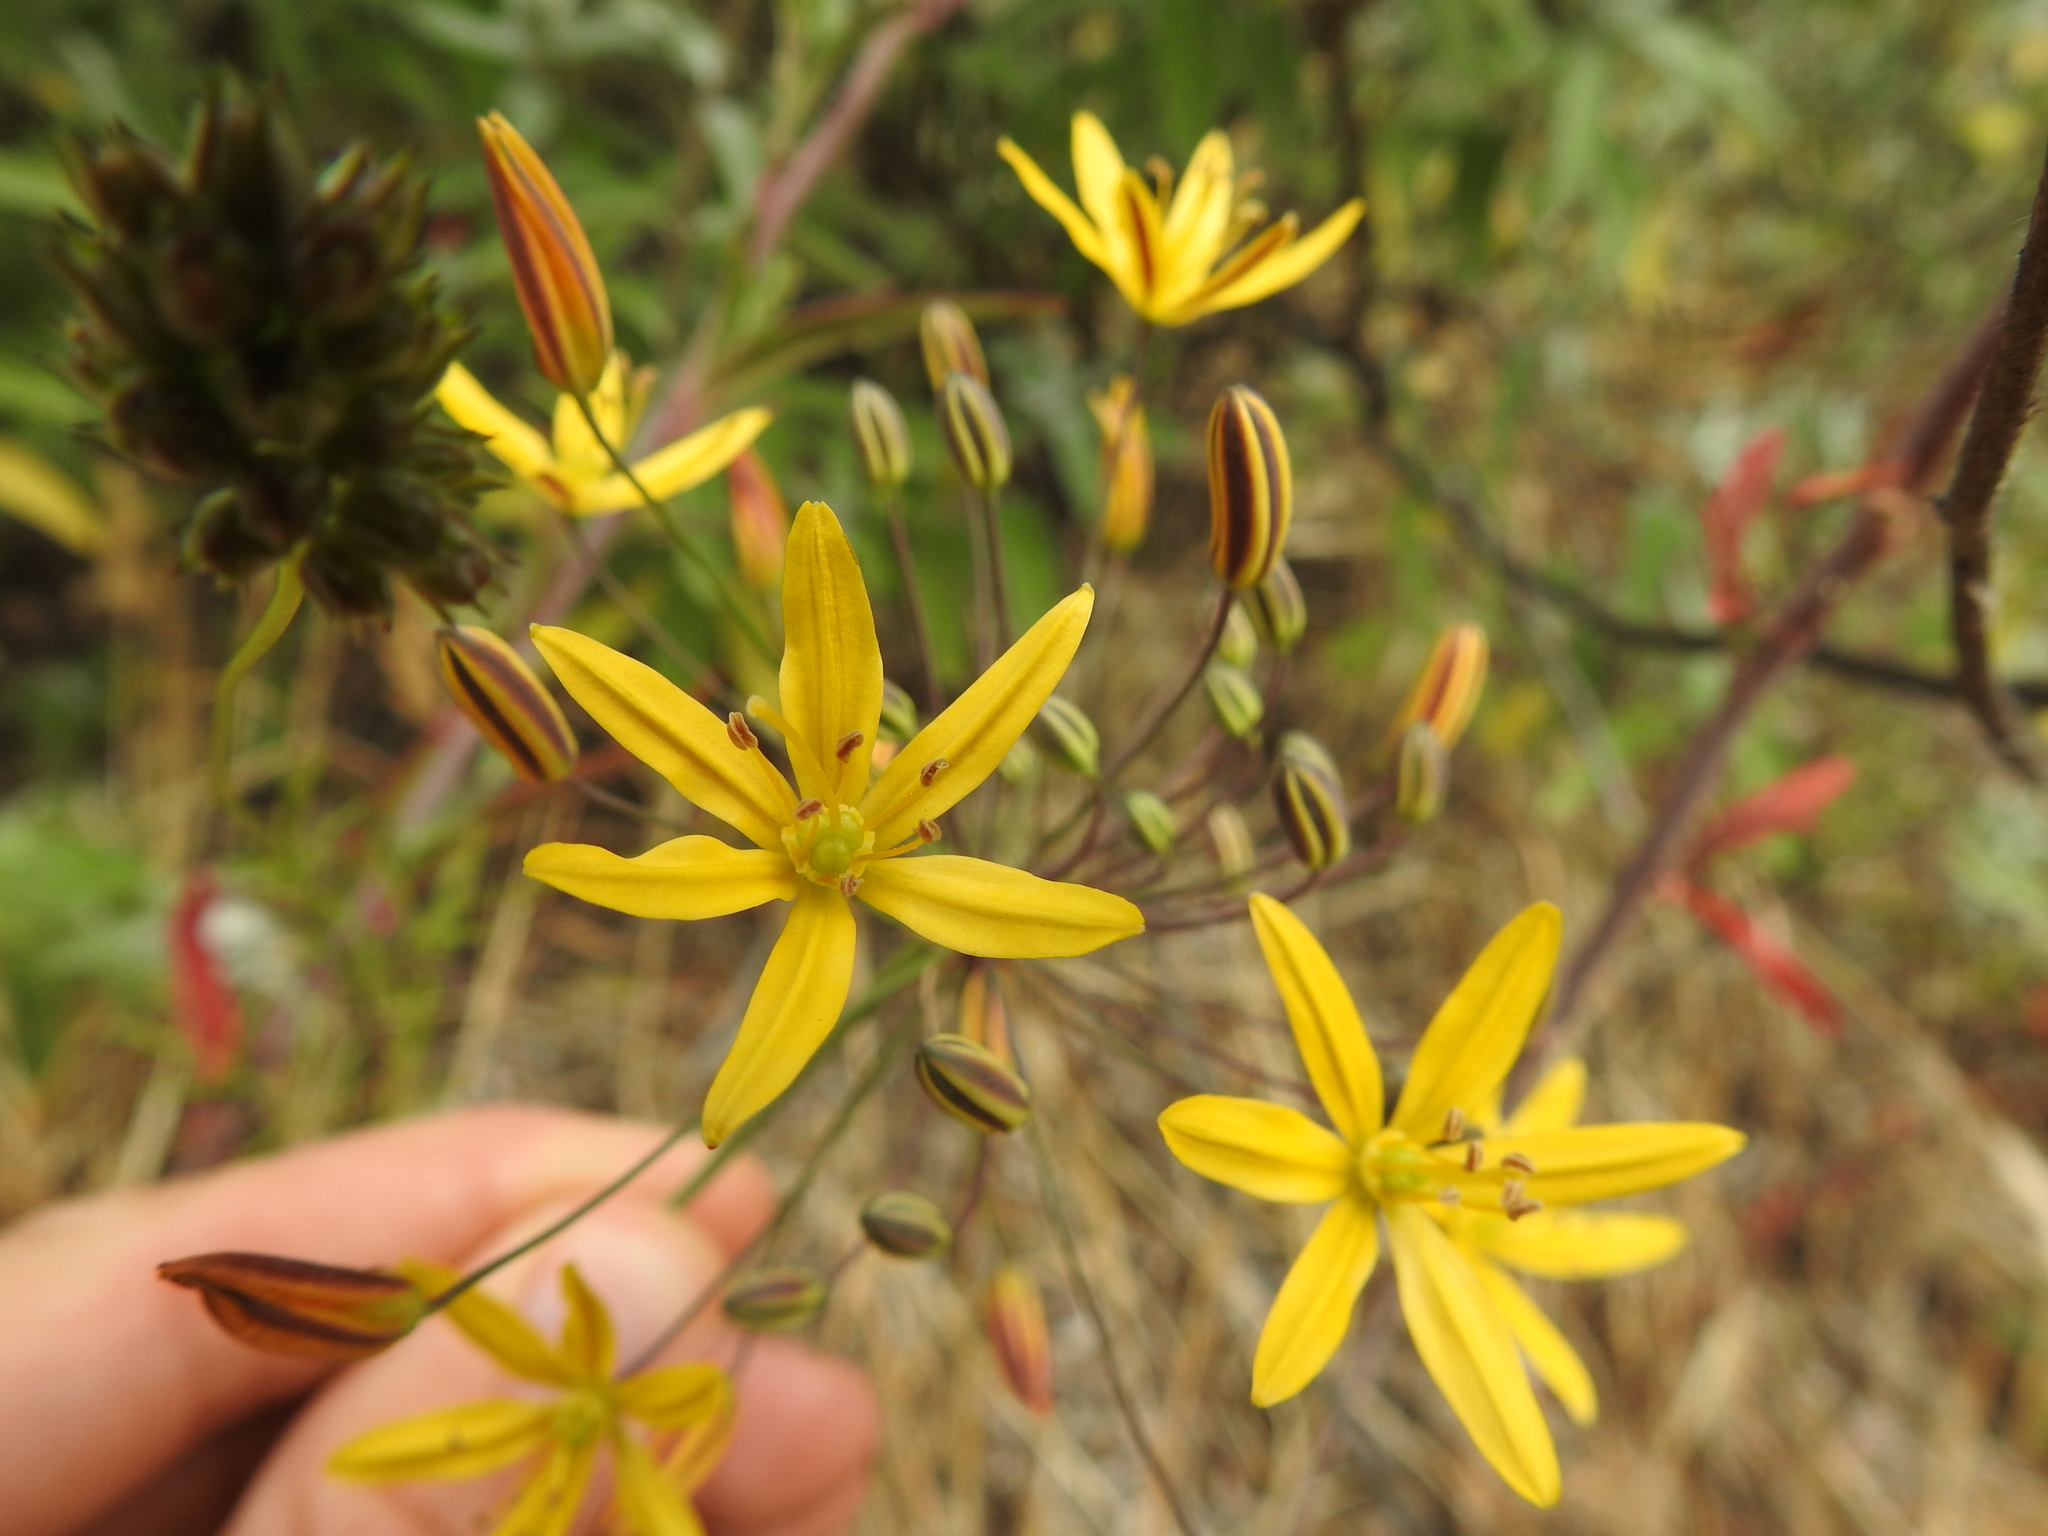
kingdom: Plantae
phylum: Tracheophyta
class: Liliopsida
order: Asparagales
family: Asparagaceae
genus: Bloomeria
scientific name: Bloomeria crocea
